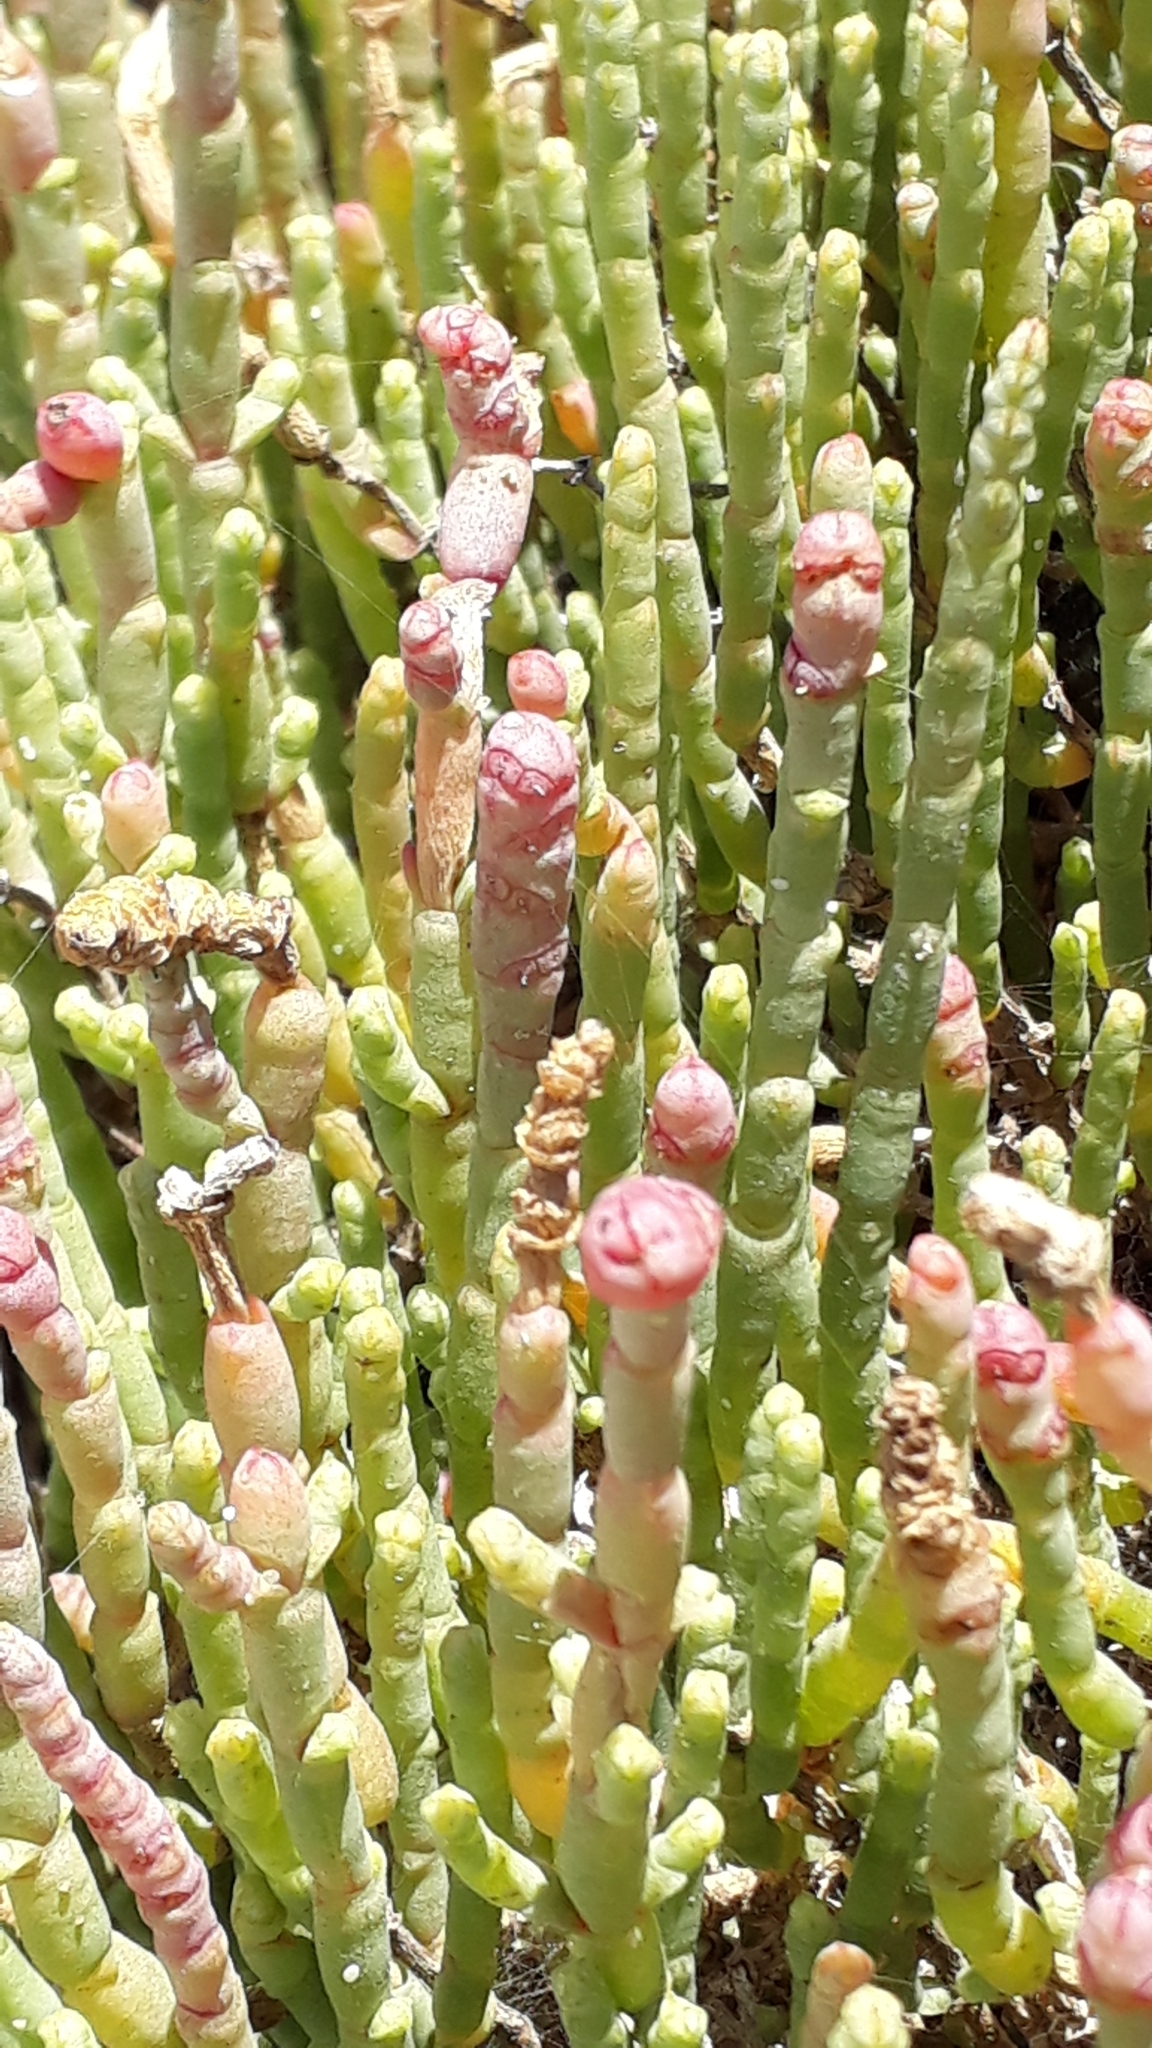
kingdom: Plantae
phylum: Tracheophyta
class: Magnoliopsida
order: Caryophyllales
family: Amaranthaceae
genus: Salicornia
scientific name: Salicornia littorea
